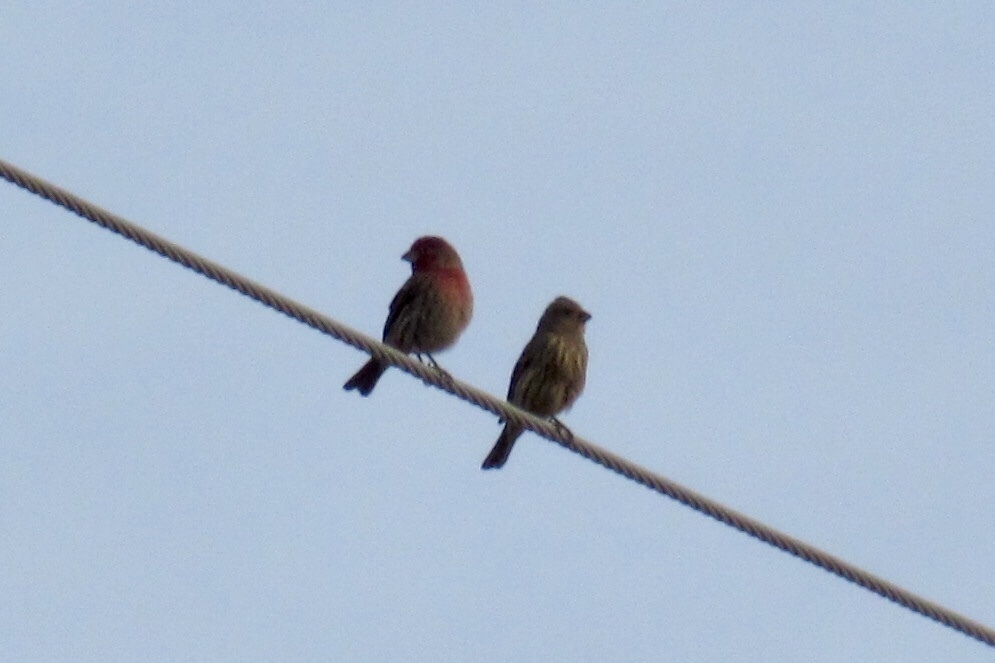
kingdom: Animalia
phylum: Chordata
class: Aves
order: Passeriformes
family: Fringillidae
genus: Haemorhous
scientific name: Haemorhous mexicanus
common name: House finch
